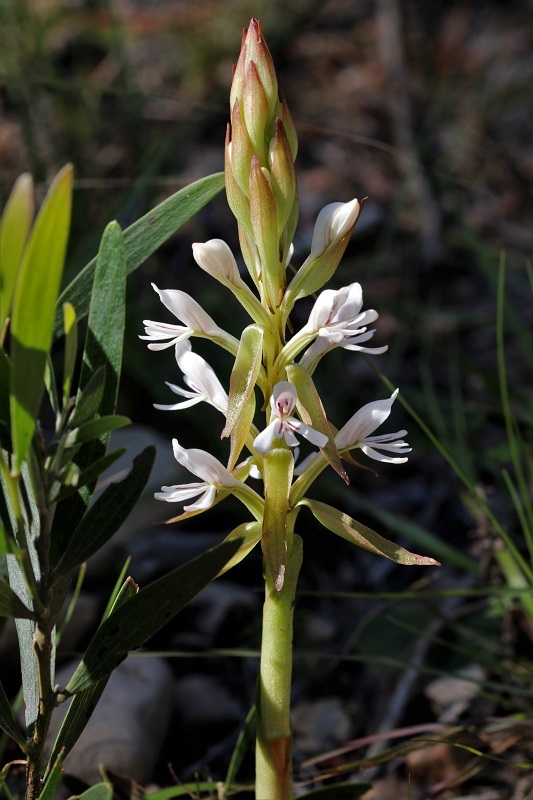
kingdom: Plantae
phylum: Tracheophyta
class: Liliopsida
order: Asparagales
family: Orchidaceae
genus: Satyrium
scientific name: Satyrium longicolle
